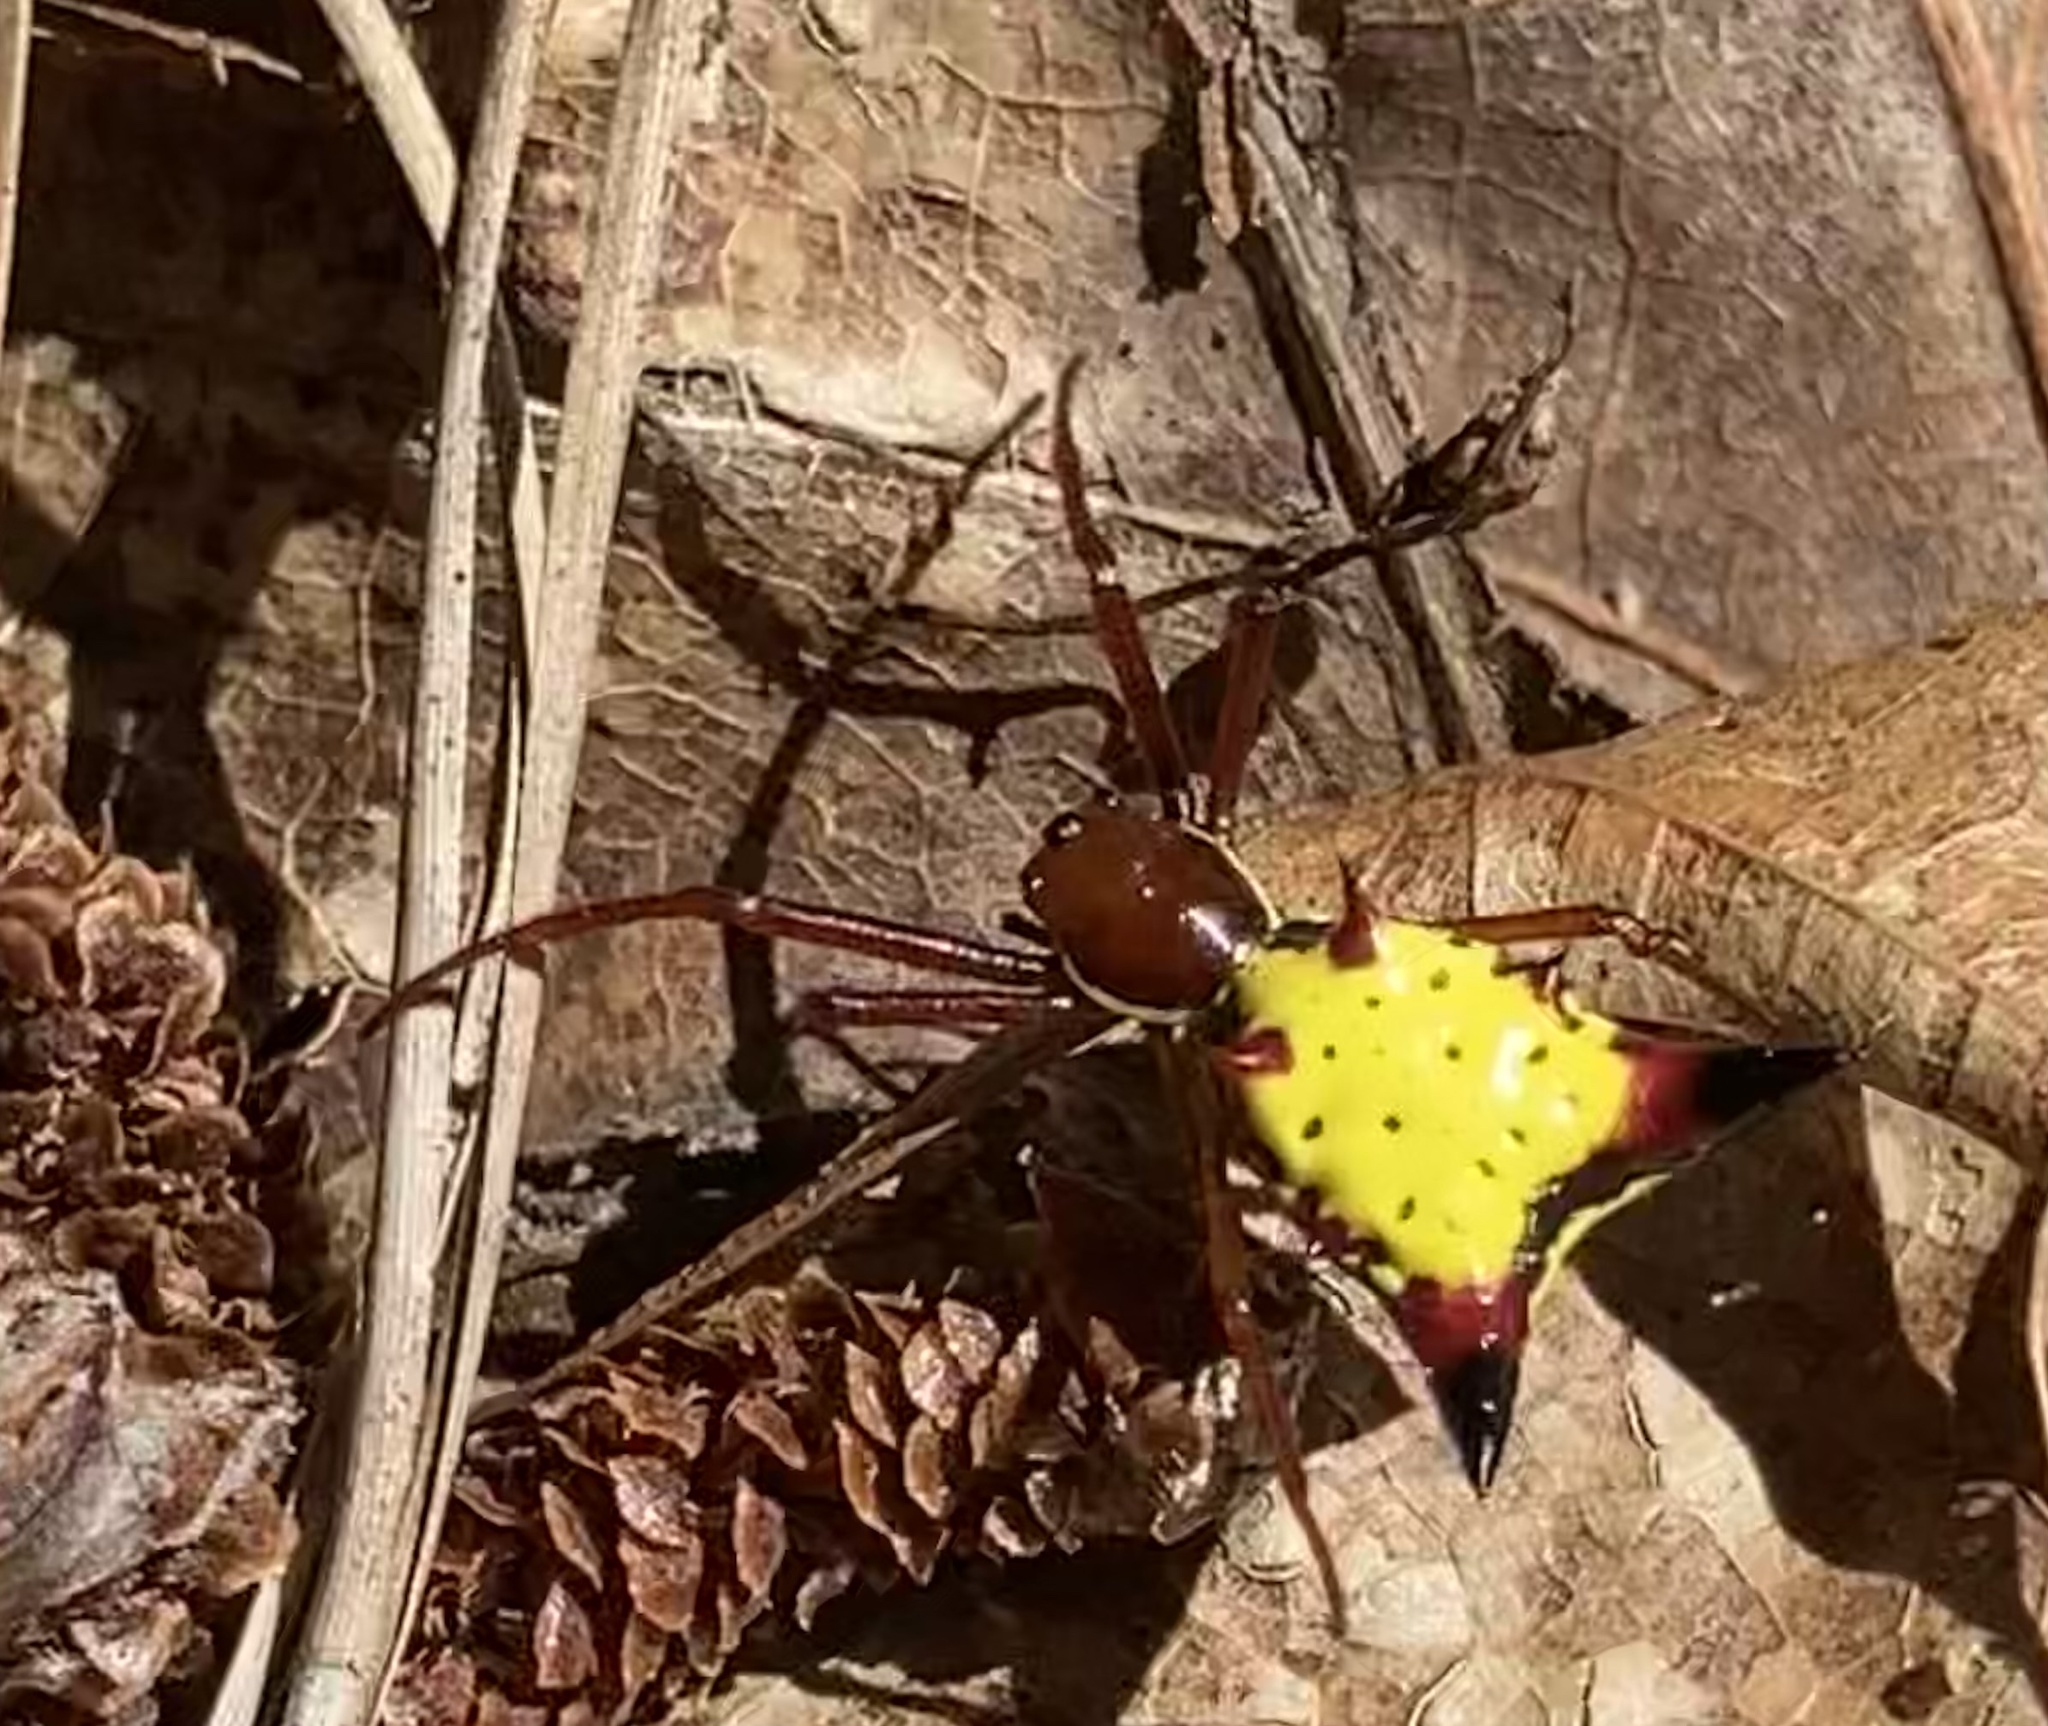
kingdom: Animalia
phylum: Arthropoda
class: Arachnida
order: Araneae
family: Araneidae
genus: Micrathena
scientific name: Micrathena sagittata
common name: Orb weavers
